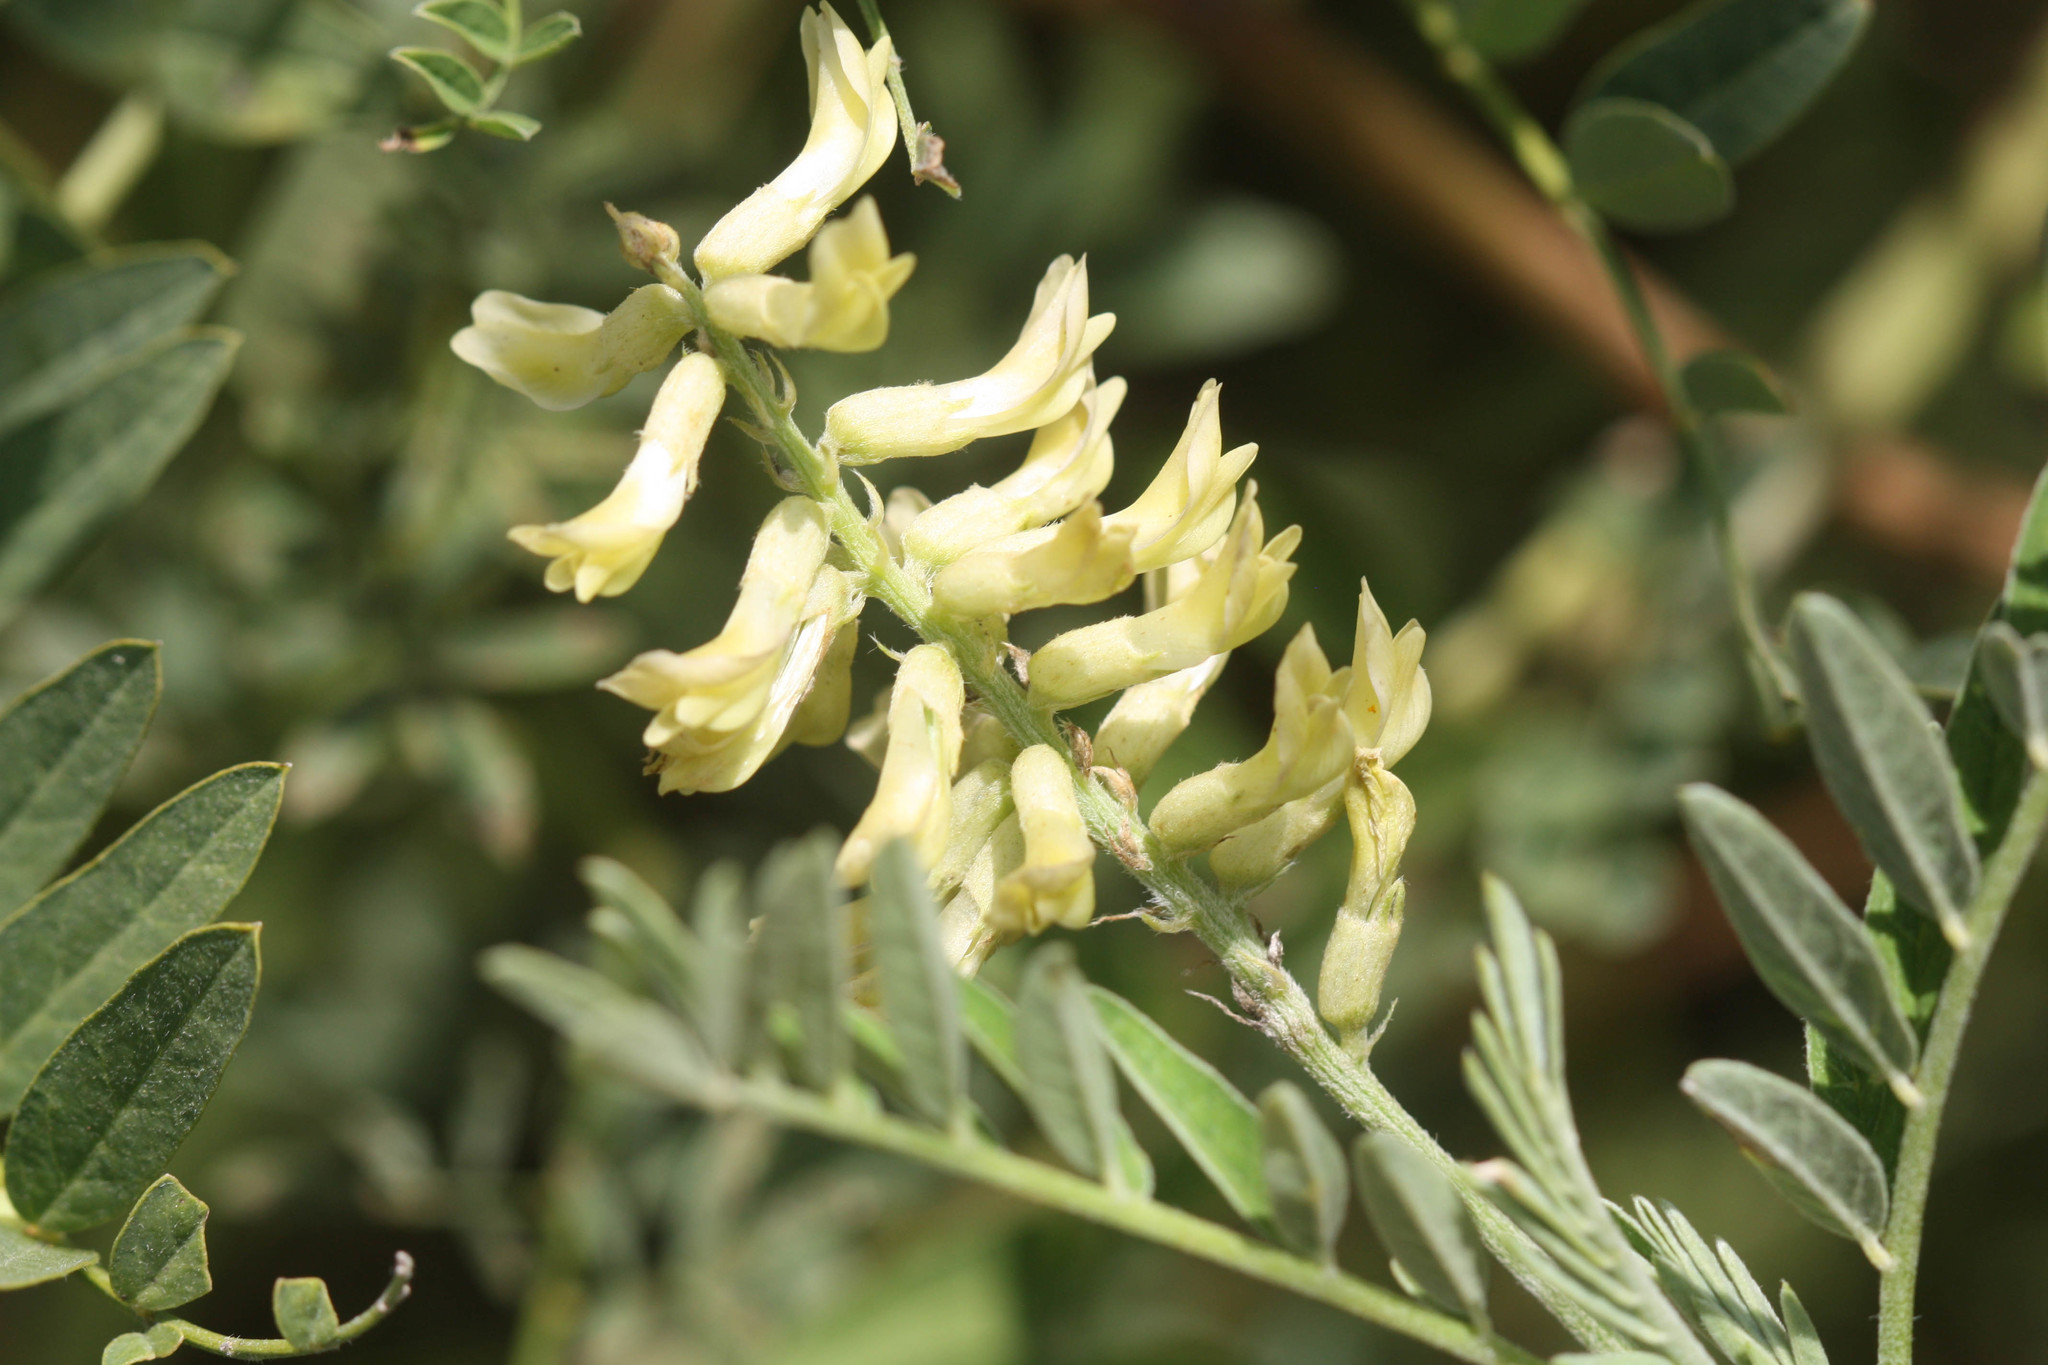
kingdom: Plantae
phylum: Tracheophyta
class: Magnoliopsida
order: Fabales
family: Fabaceae
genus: Astragalus
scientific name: Astragalus canadensis
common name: Canada milk-vetch
